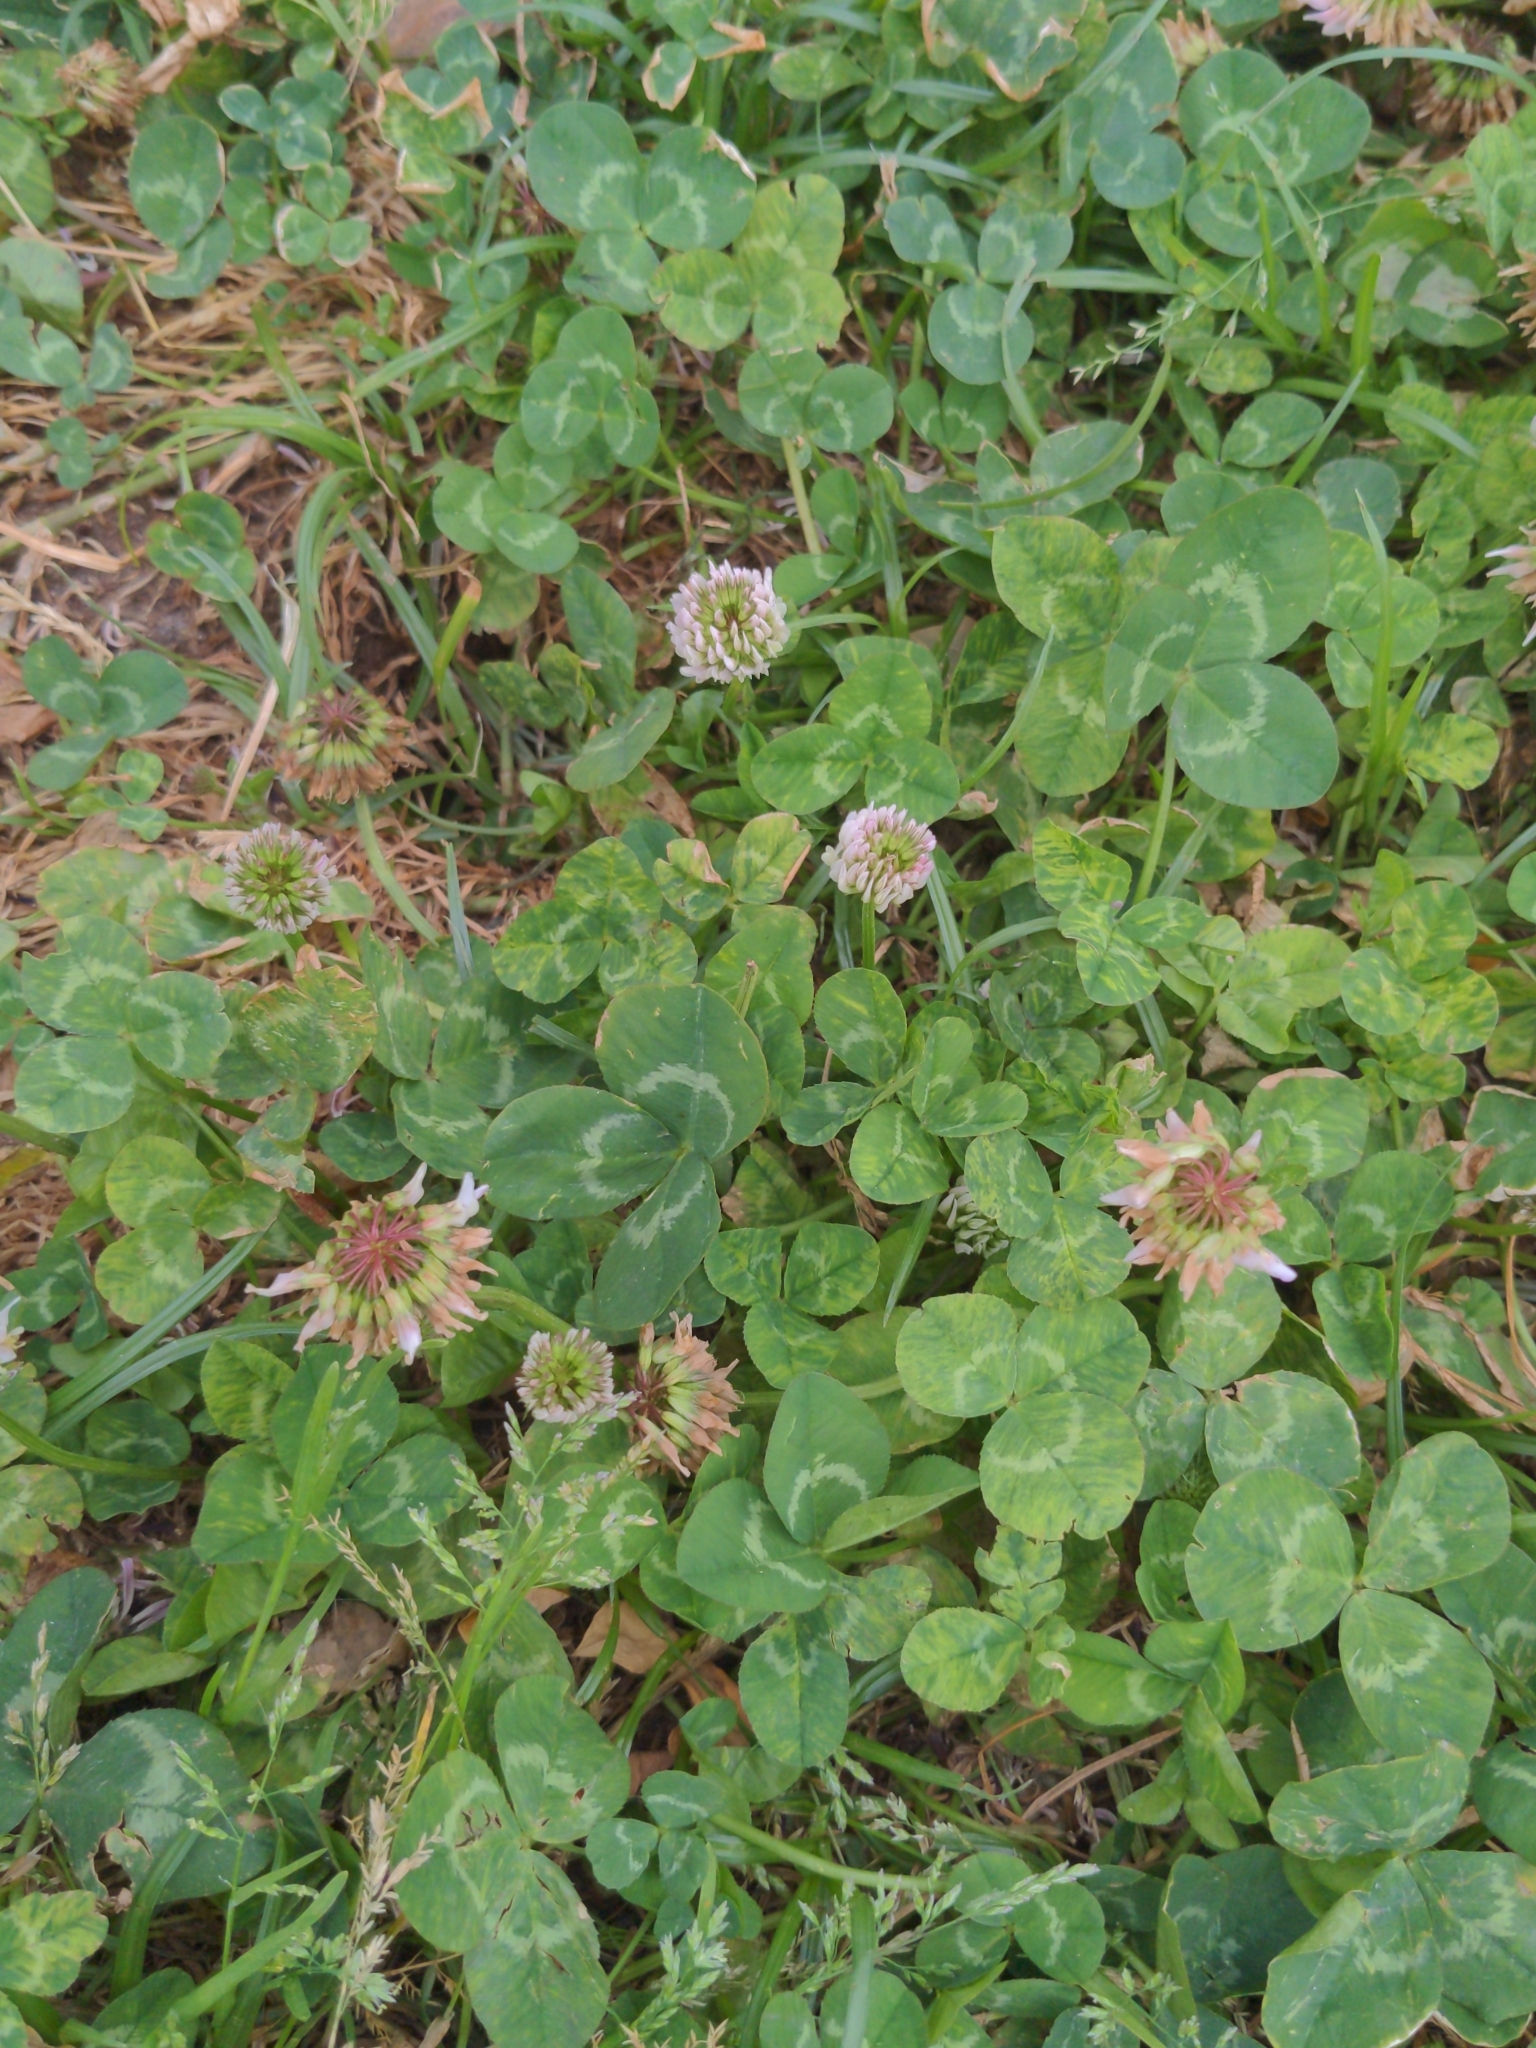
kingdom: Plantae
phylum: Tracheophyta
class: Magnoliopsida
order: Fabales
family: Fabaceae
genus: Trifolium
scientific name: Trifolium repens
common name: White clover
